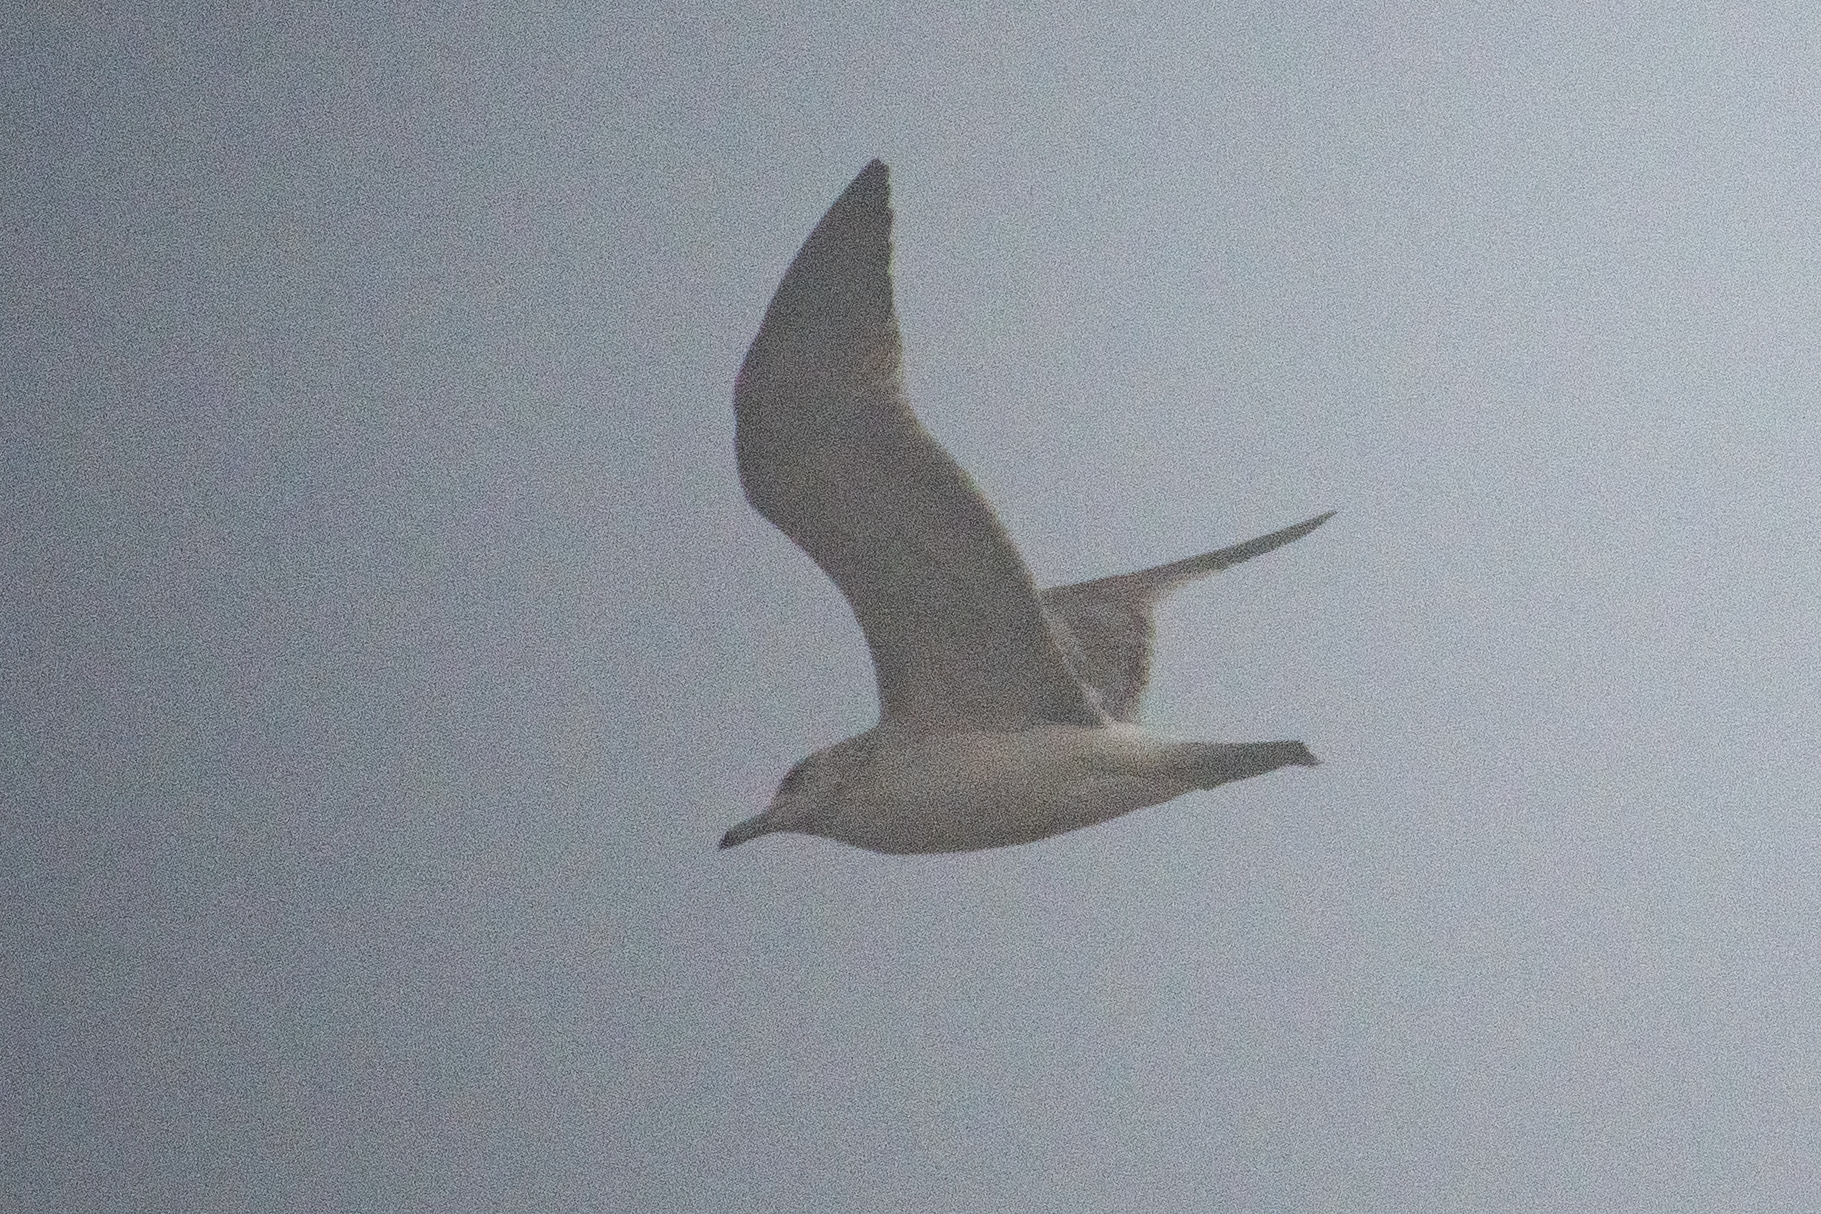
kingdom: Animalia
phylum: Chordata
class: Aves
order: Charadriiformes
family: Laridae
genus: Larus
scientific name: Larus californicus
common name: California gull
